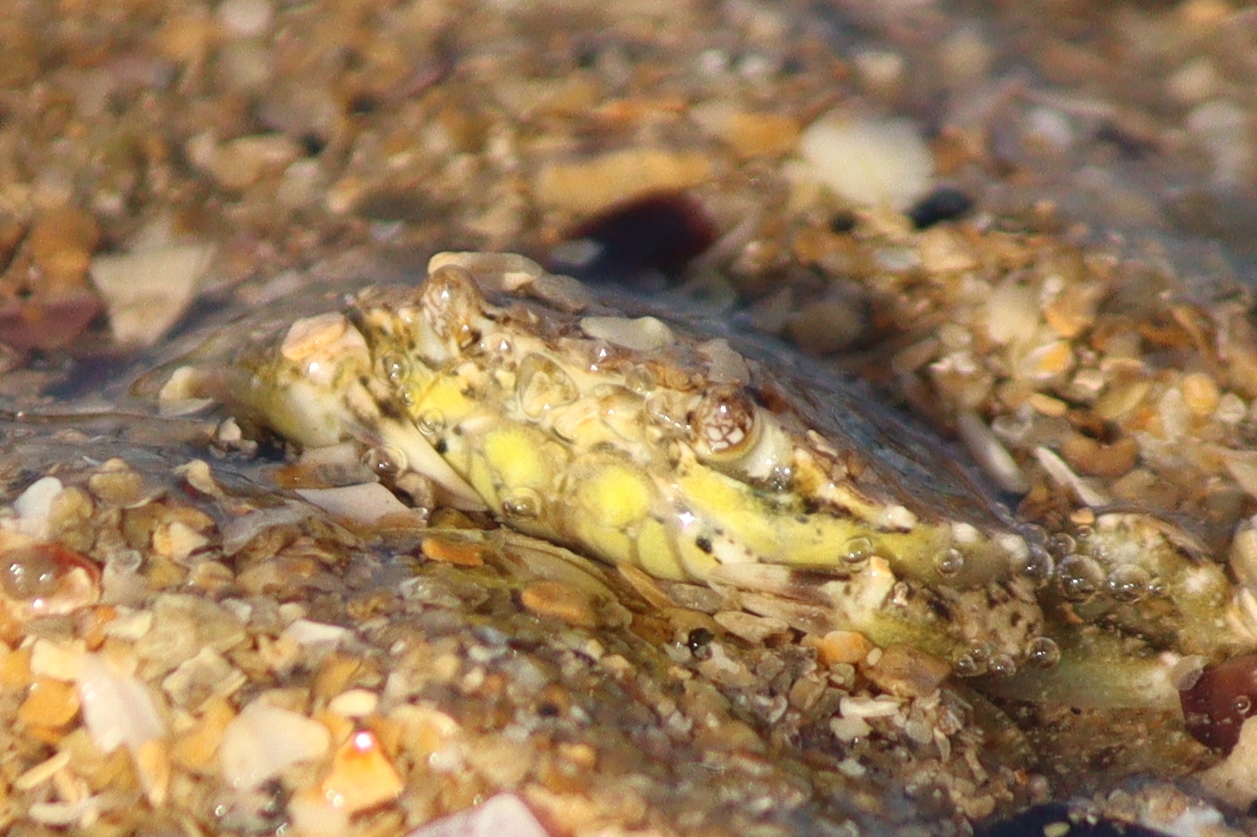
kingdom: Animalia
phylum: Arthropoda
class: Malacostraca
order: Decapoda
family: Carcinidae
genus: Carcinus
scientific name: Carcinus maenas
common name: European green crab
